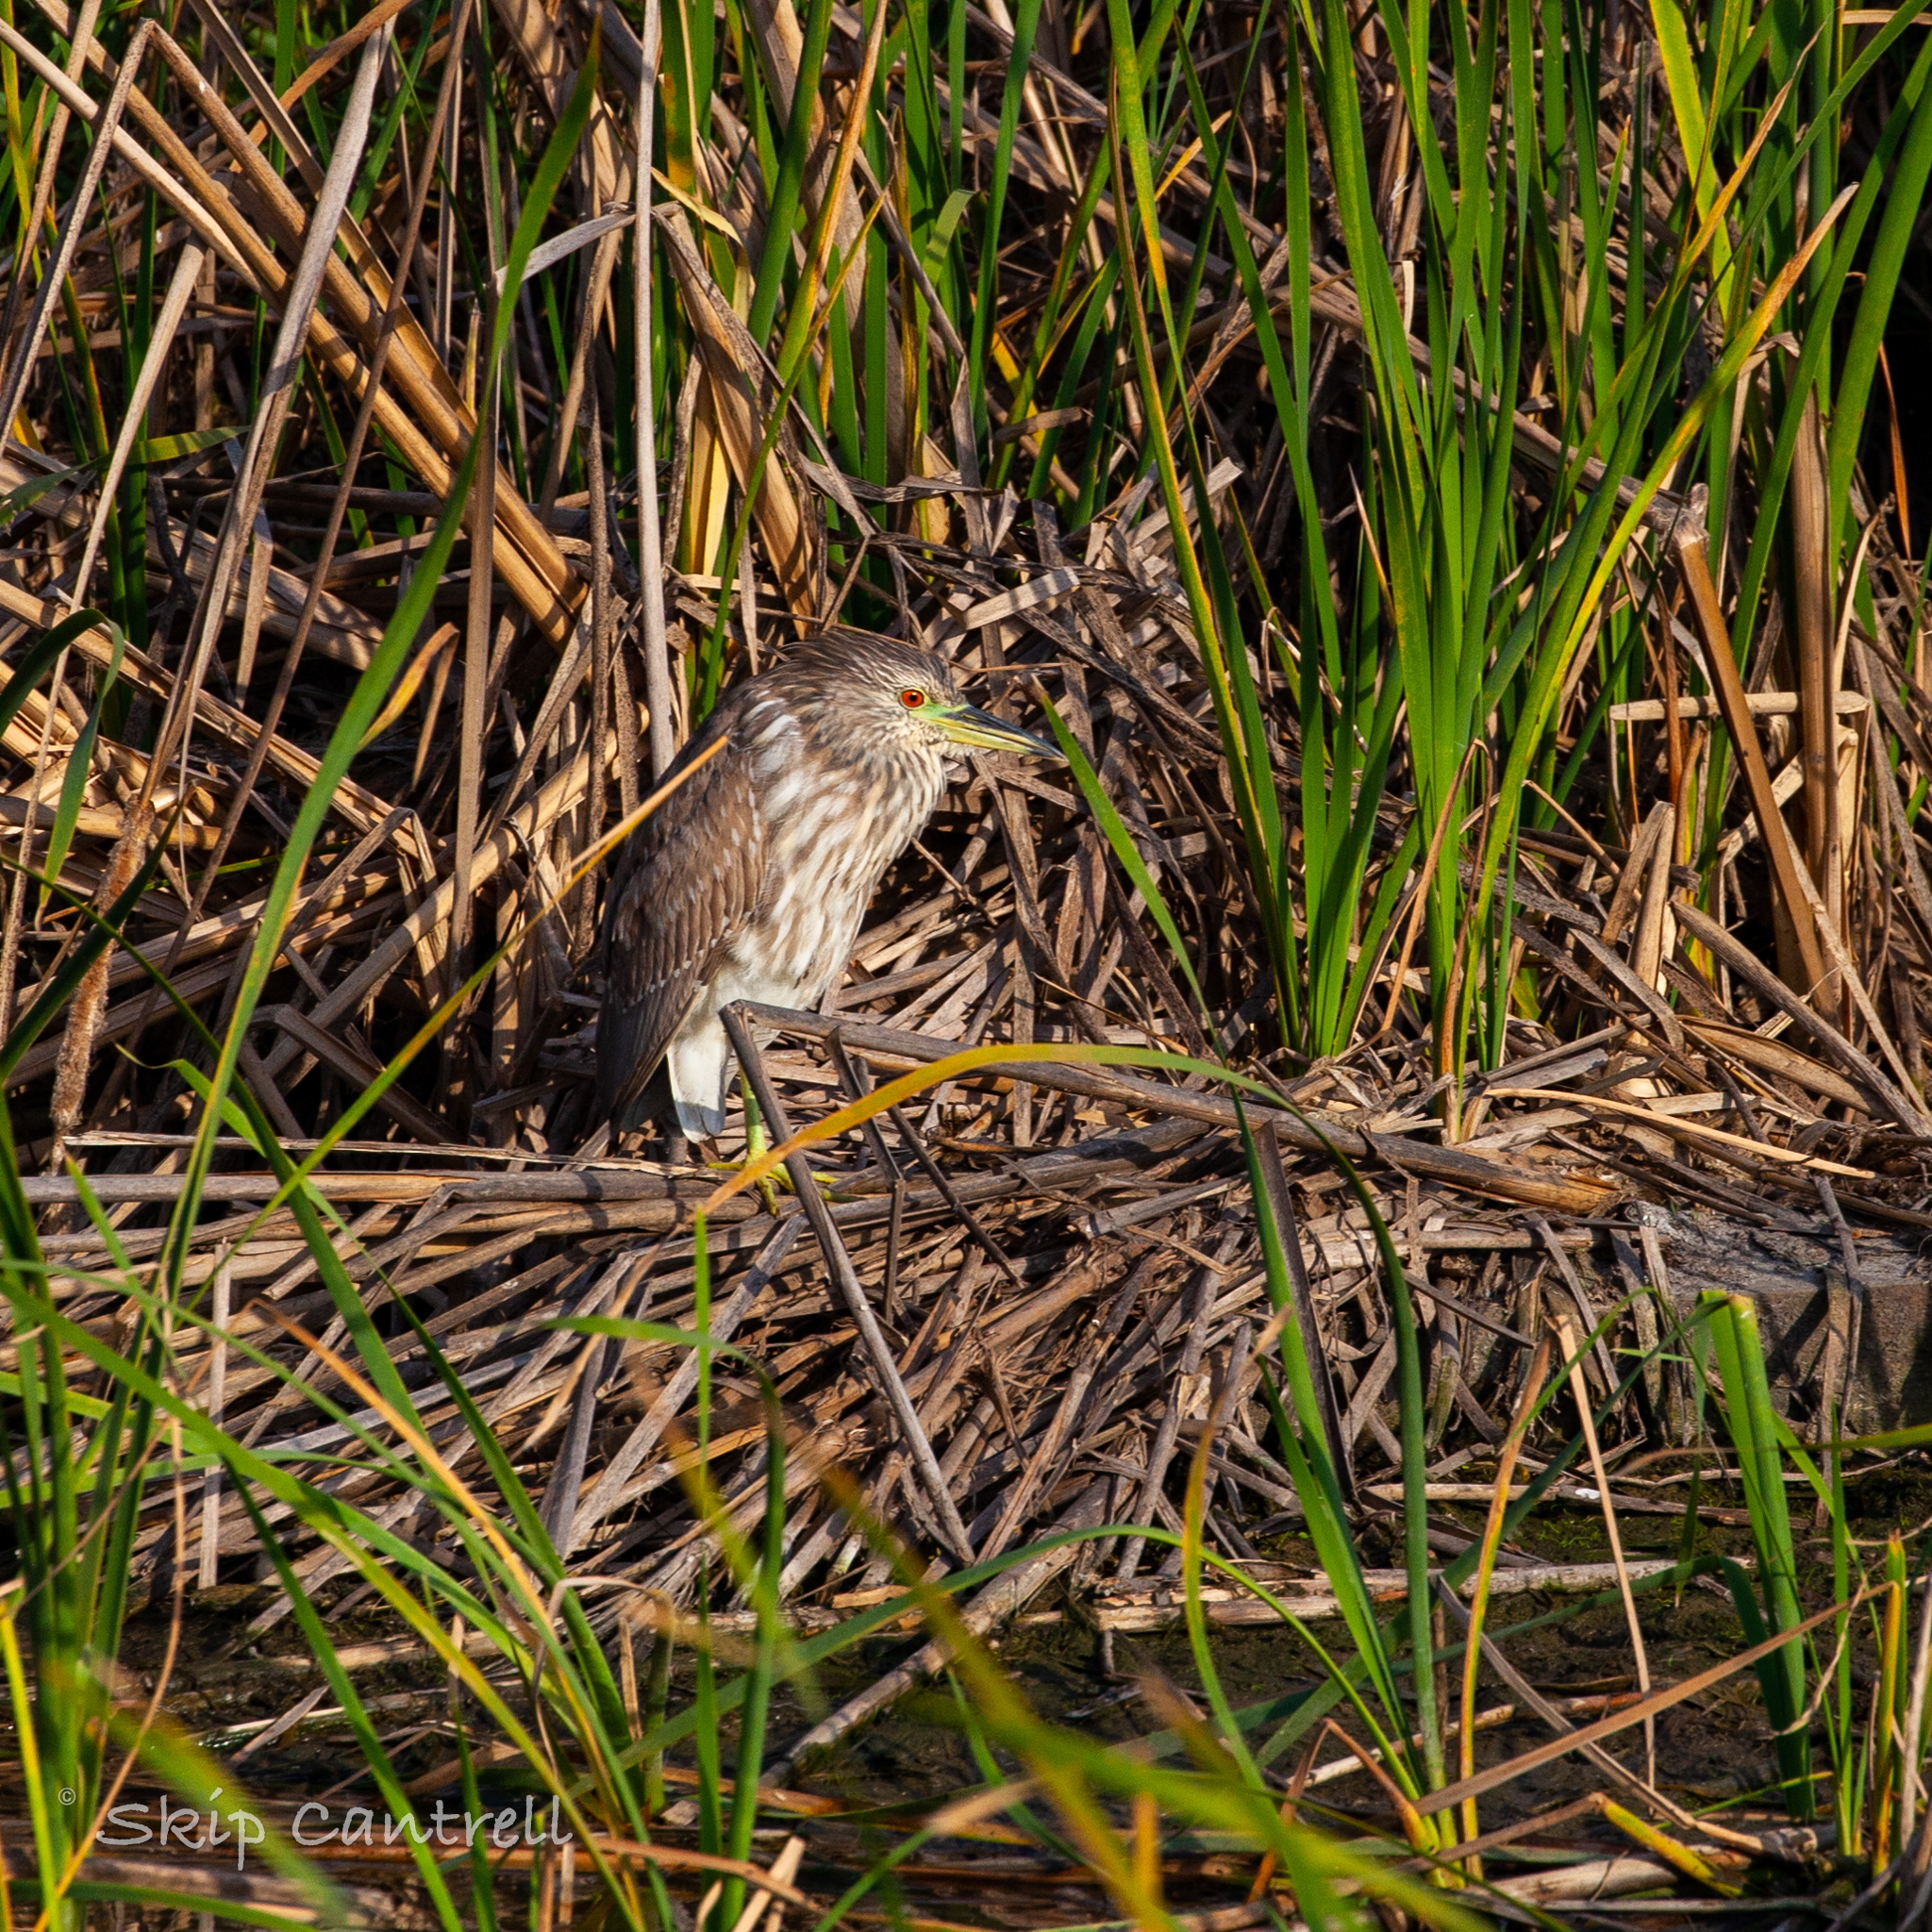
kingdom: Animalia
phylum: Chordata
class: Aves
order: Pelecaniformes
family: Ardeidae
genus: Nycticorax
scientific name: Nycticorax nycticorax
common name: Black-crowned night heron
